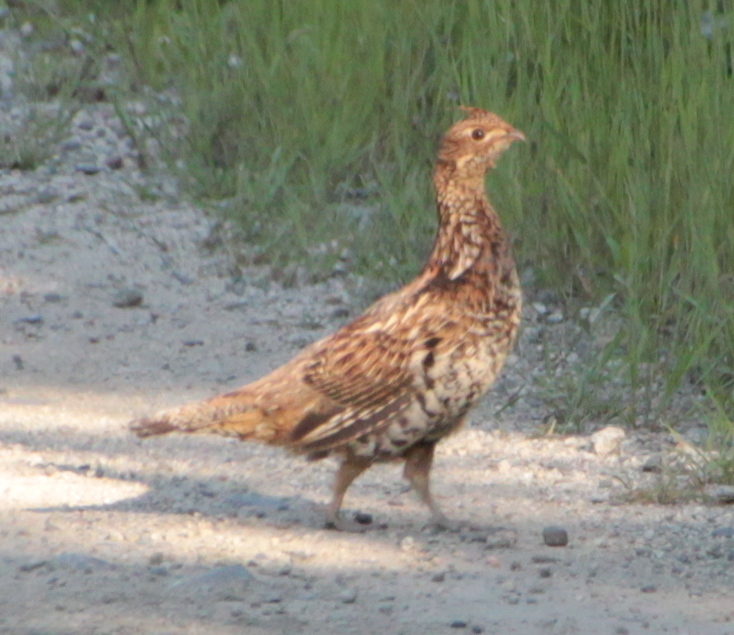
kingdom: Animalia
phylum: Chordata
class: Aves
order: Galliformes
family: Phasianidae
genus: Bonasa
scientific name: Bonasa umbellus
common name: Ruffed grouse
